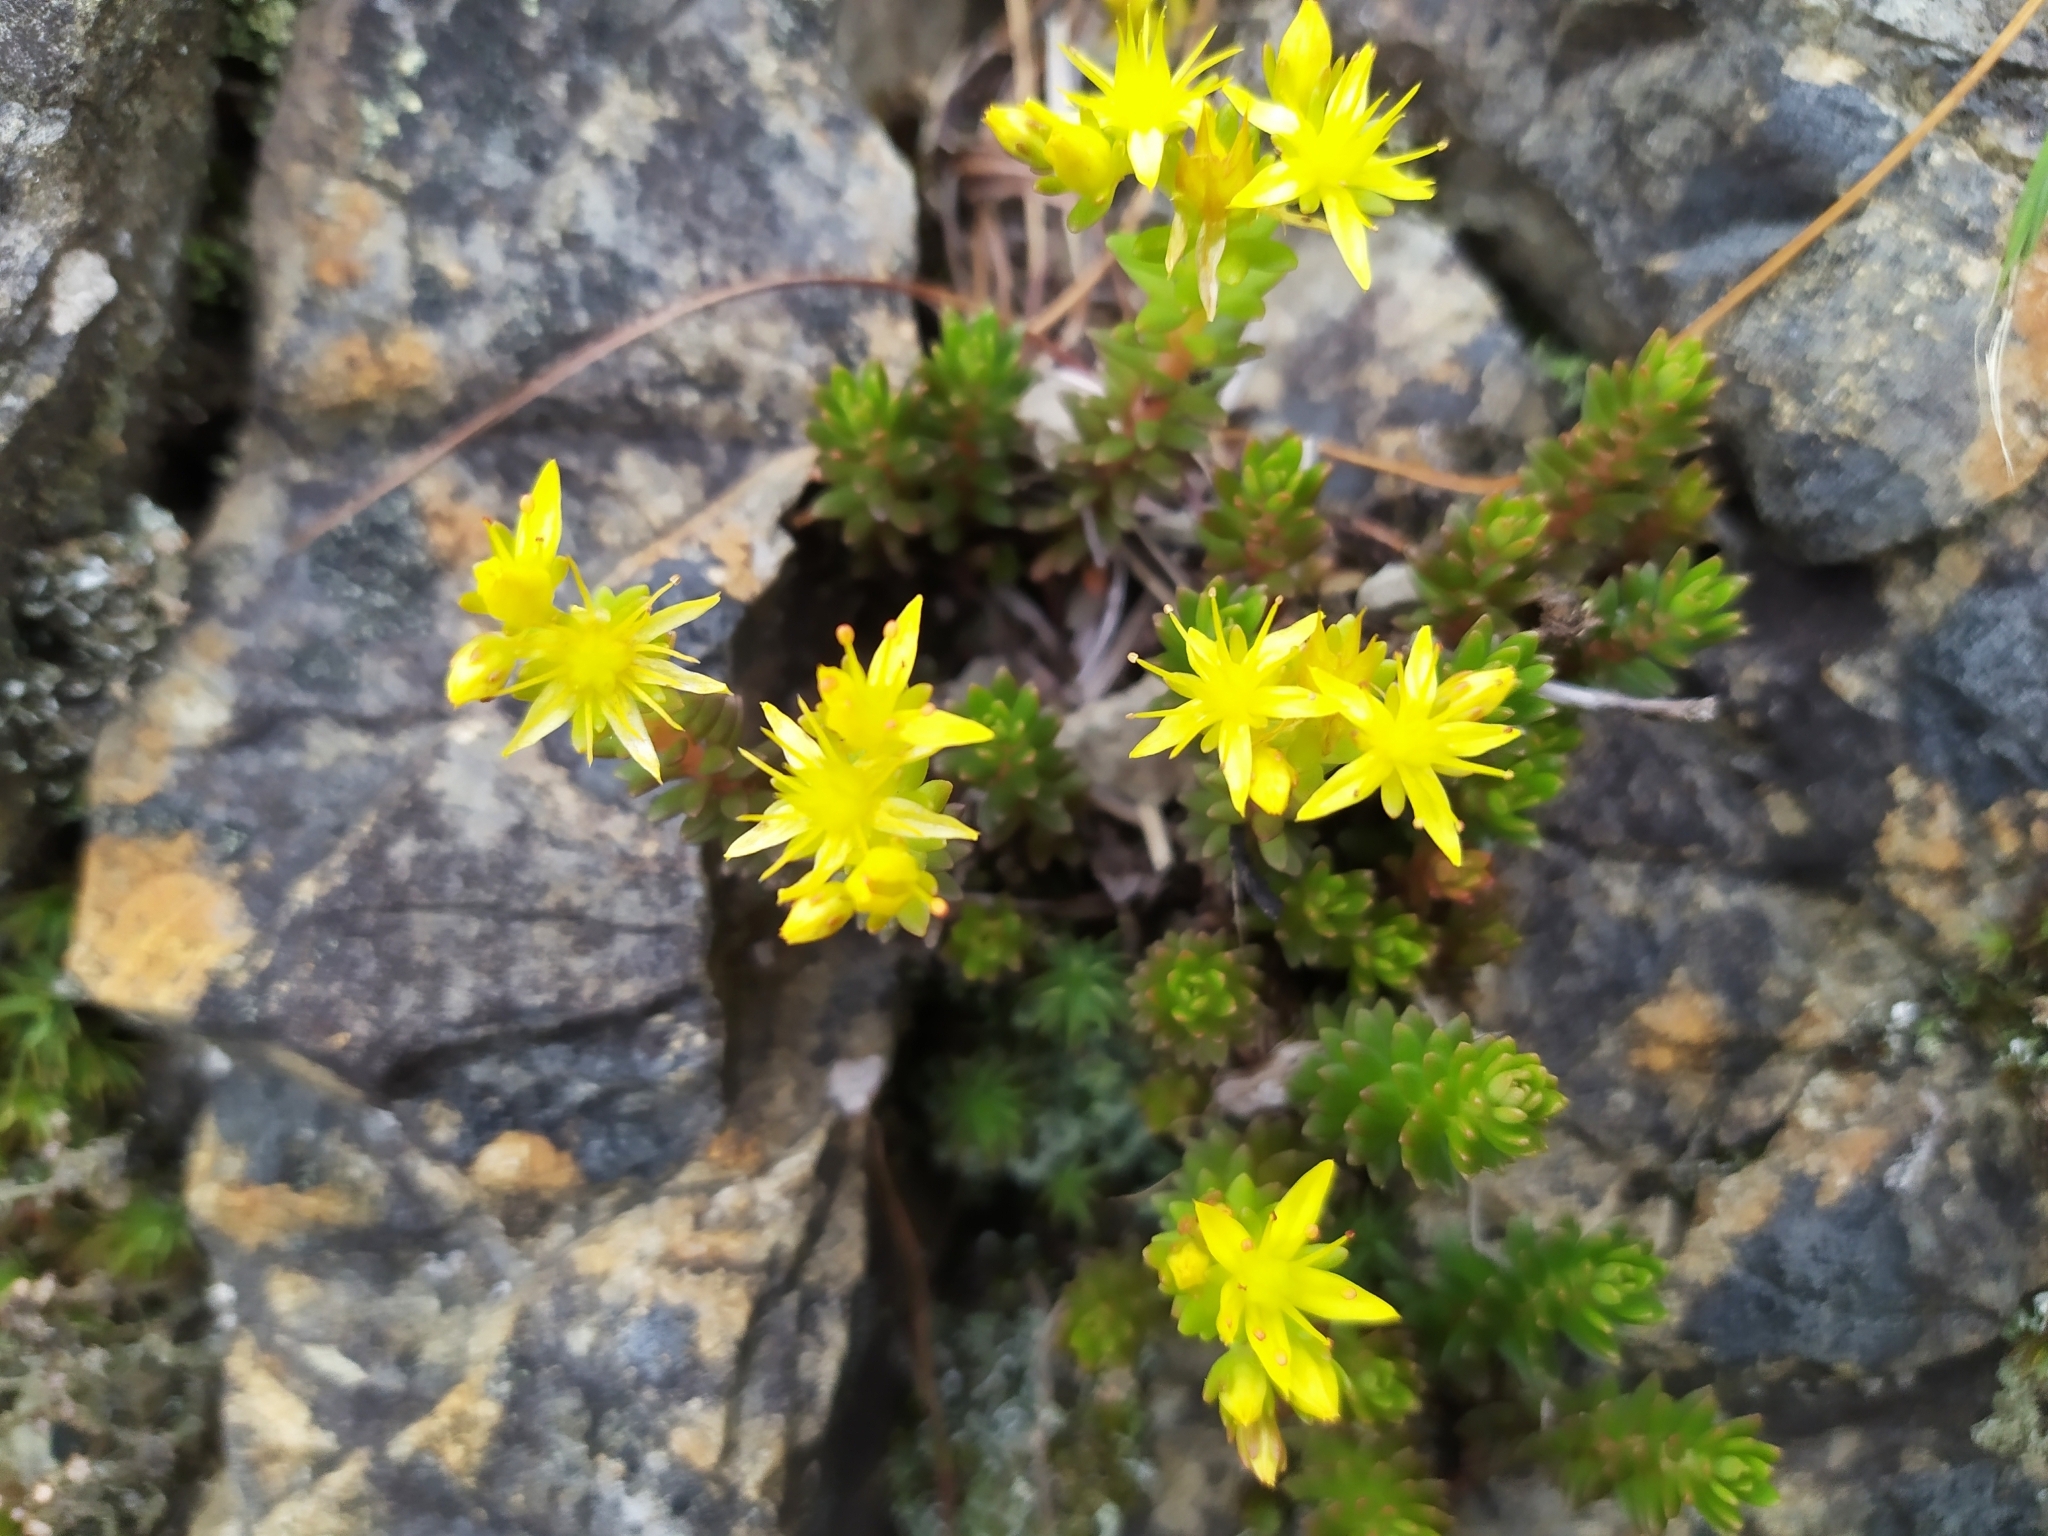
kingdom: Plantae
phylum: Tracheophyta
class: Magnoliopsida
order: Saxifragales
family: Crassulaceae
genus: Sedum
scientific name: Sedum morrisonense
